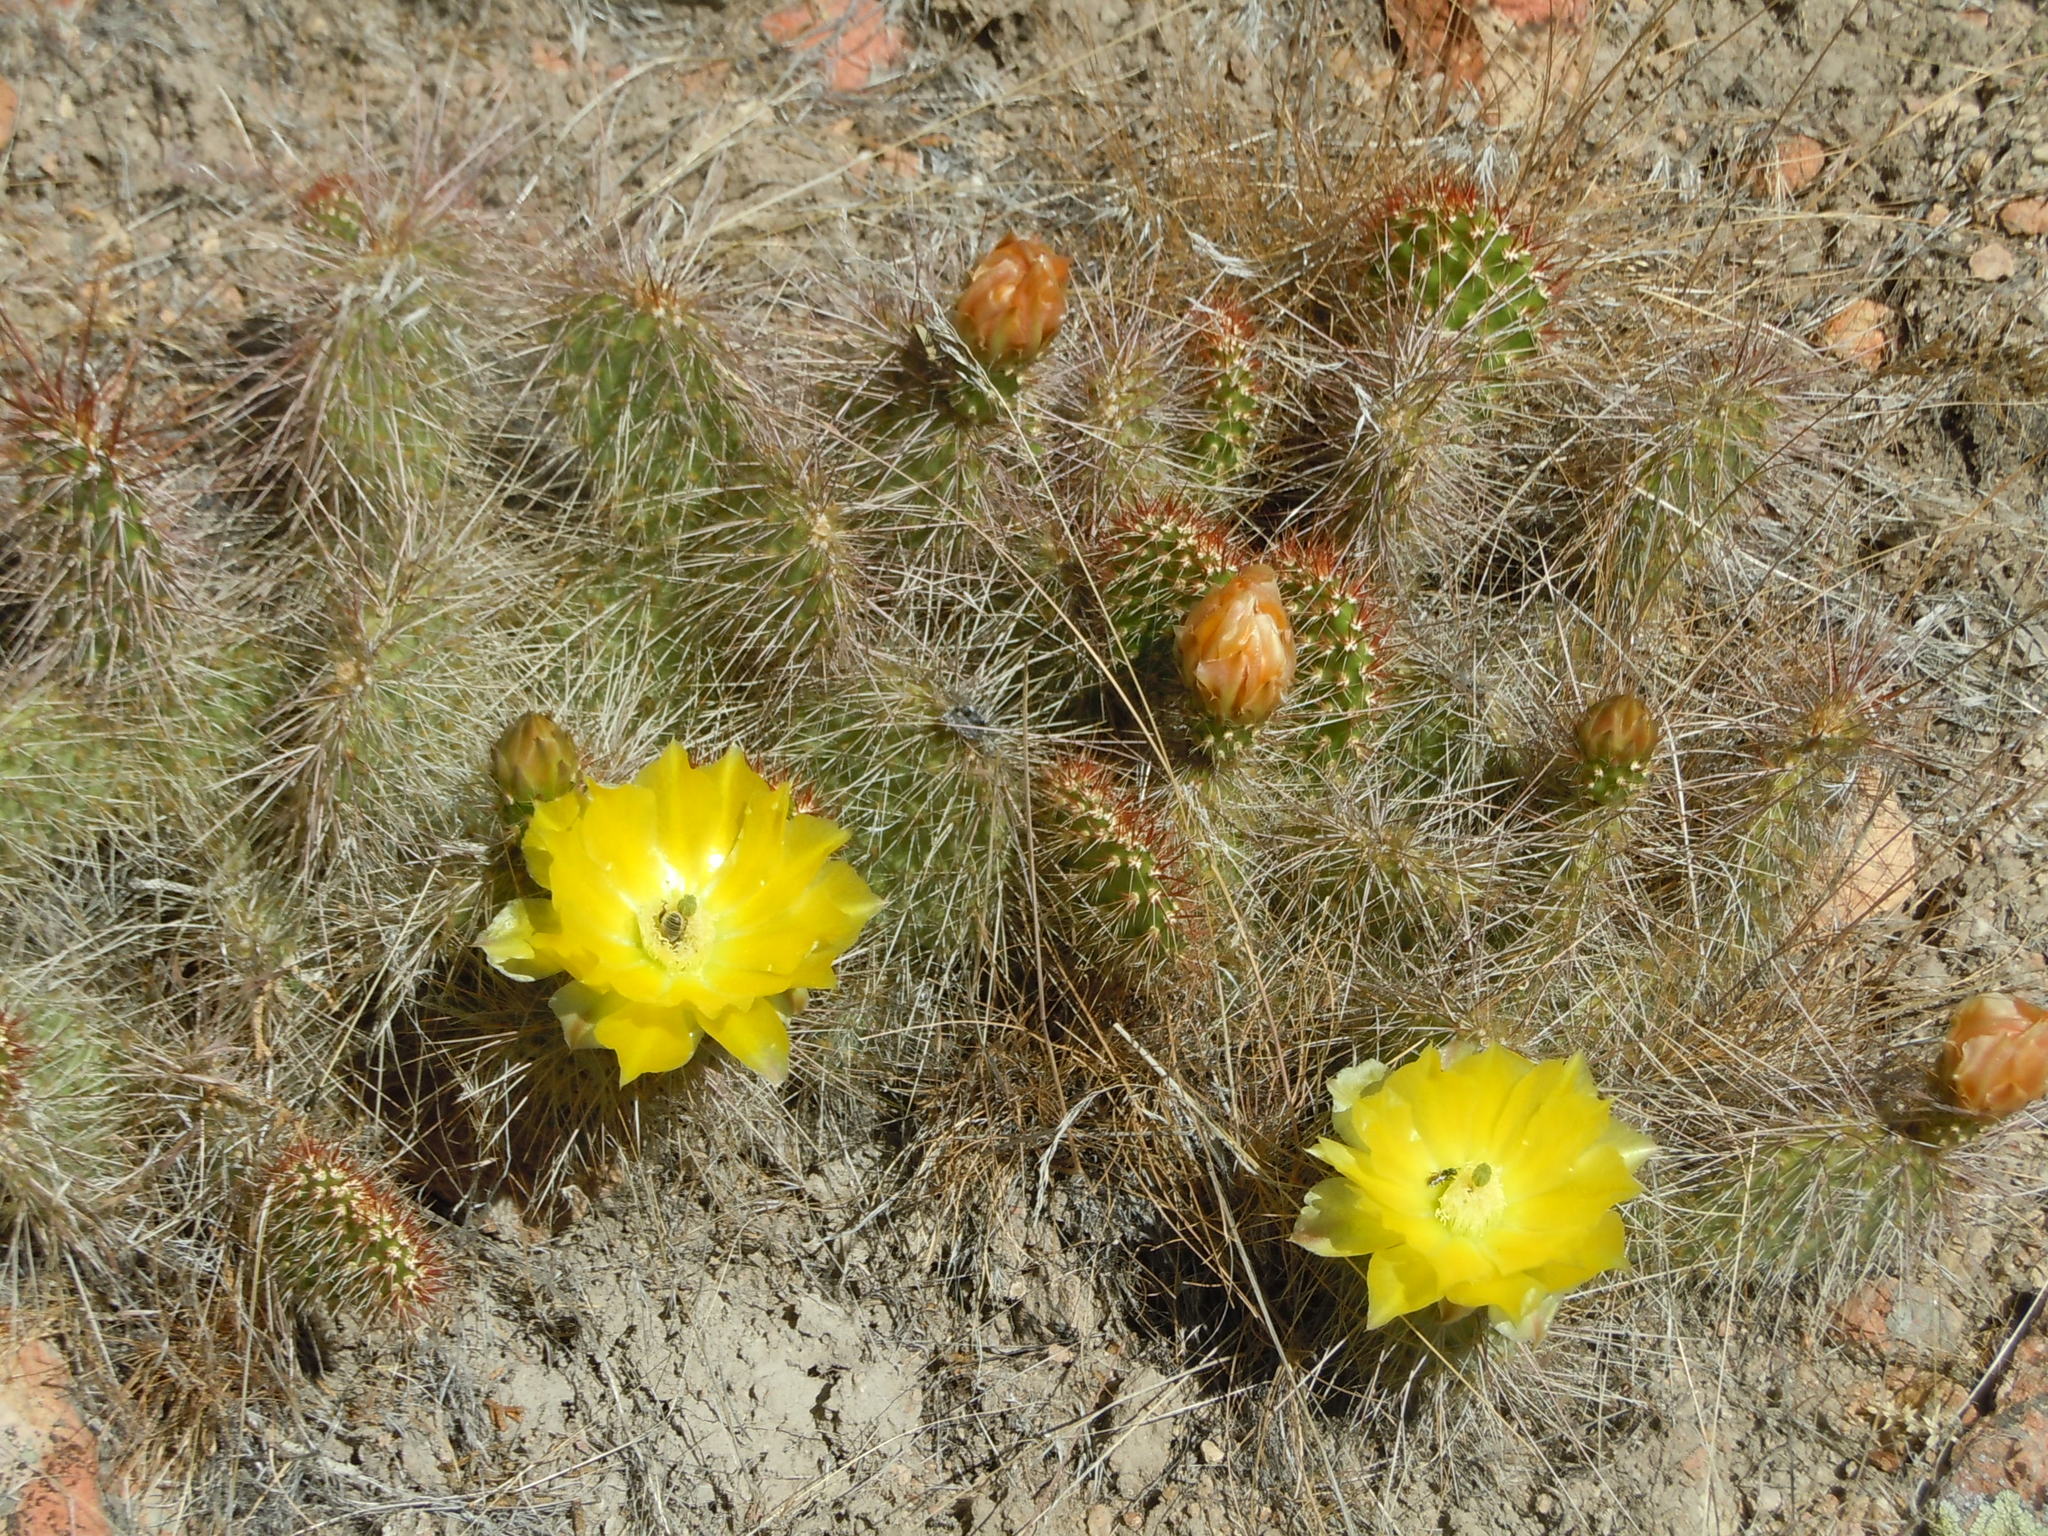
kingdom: Plantae
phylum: Tracheophyta
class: Magnoliopsida
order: Caryophyllales
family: Cactaceae
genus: Opuntia
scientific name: Opuntia polyacantha
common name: Plains prickly-pear
